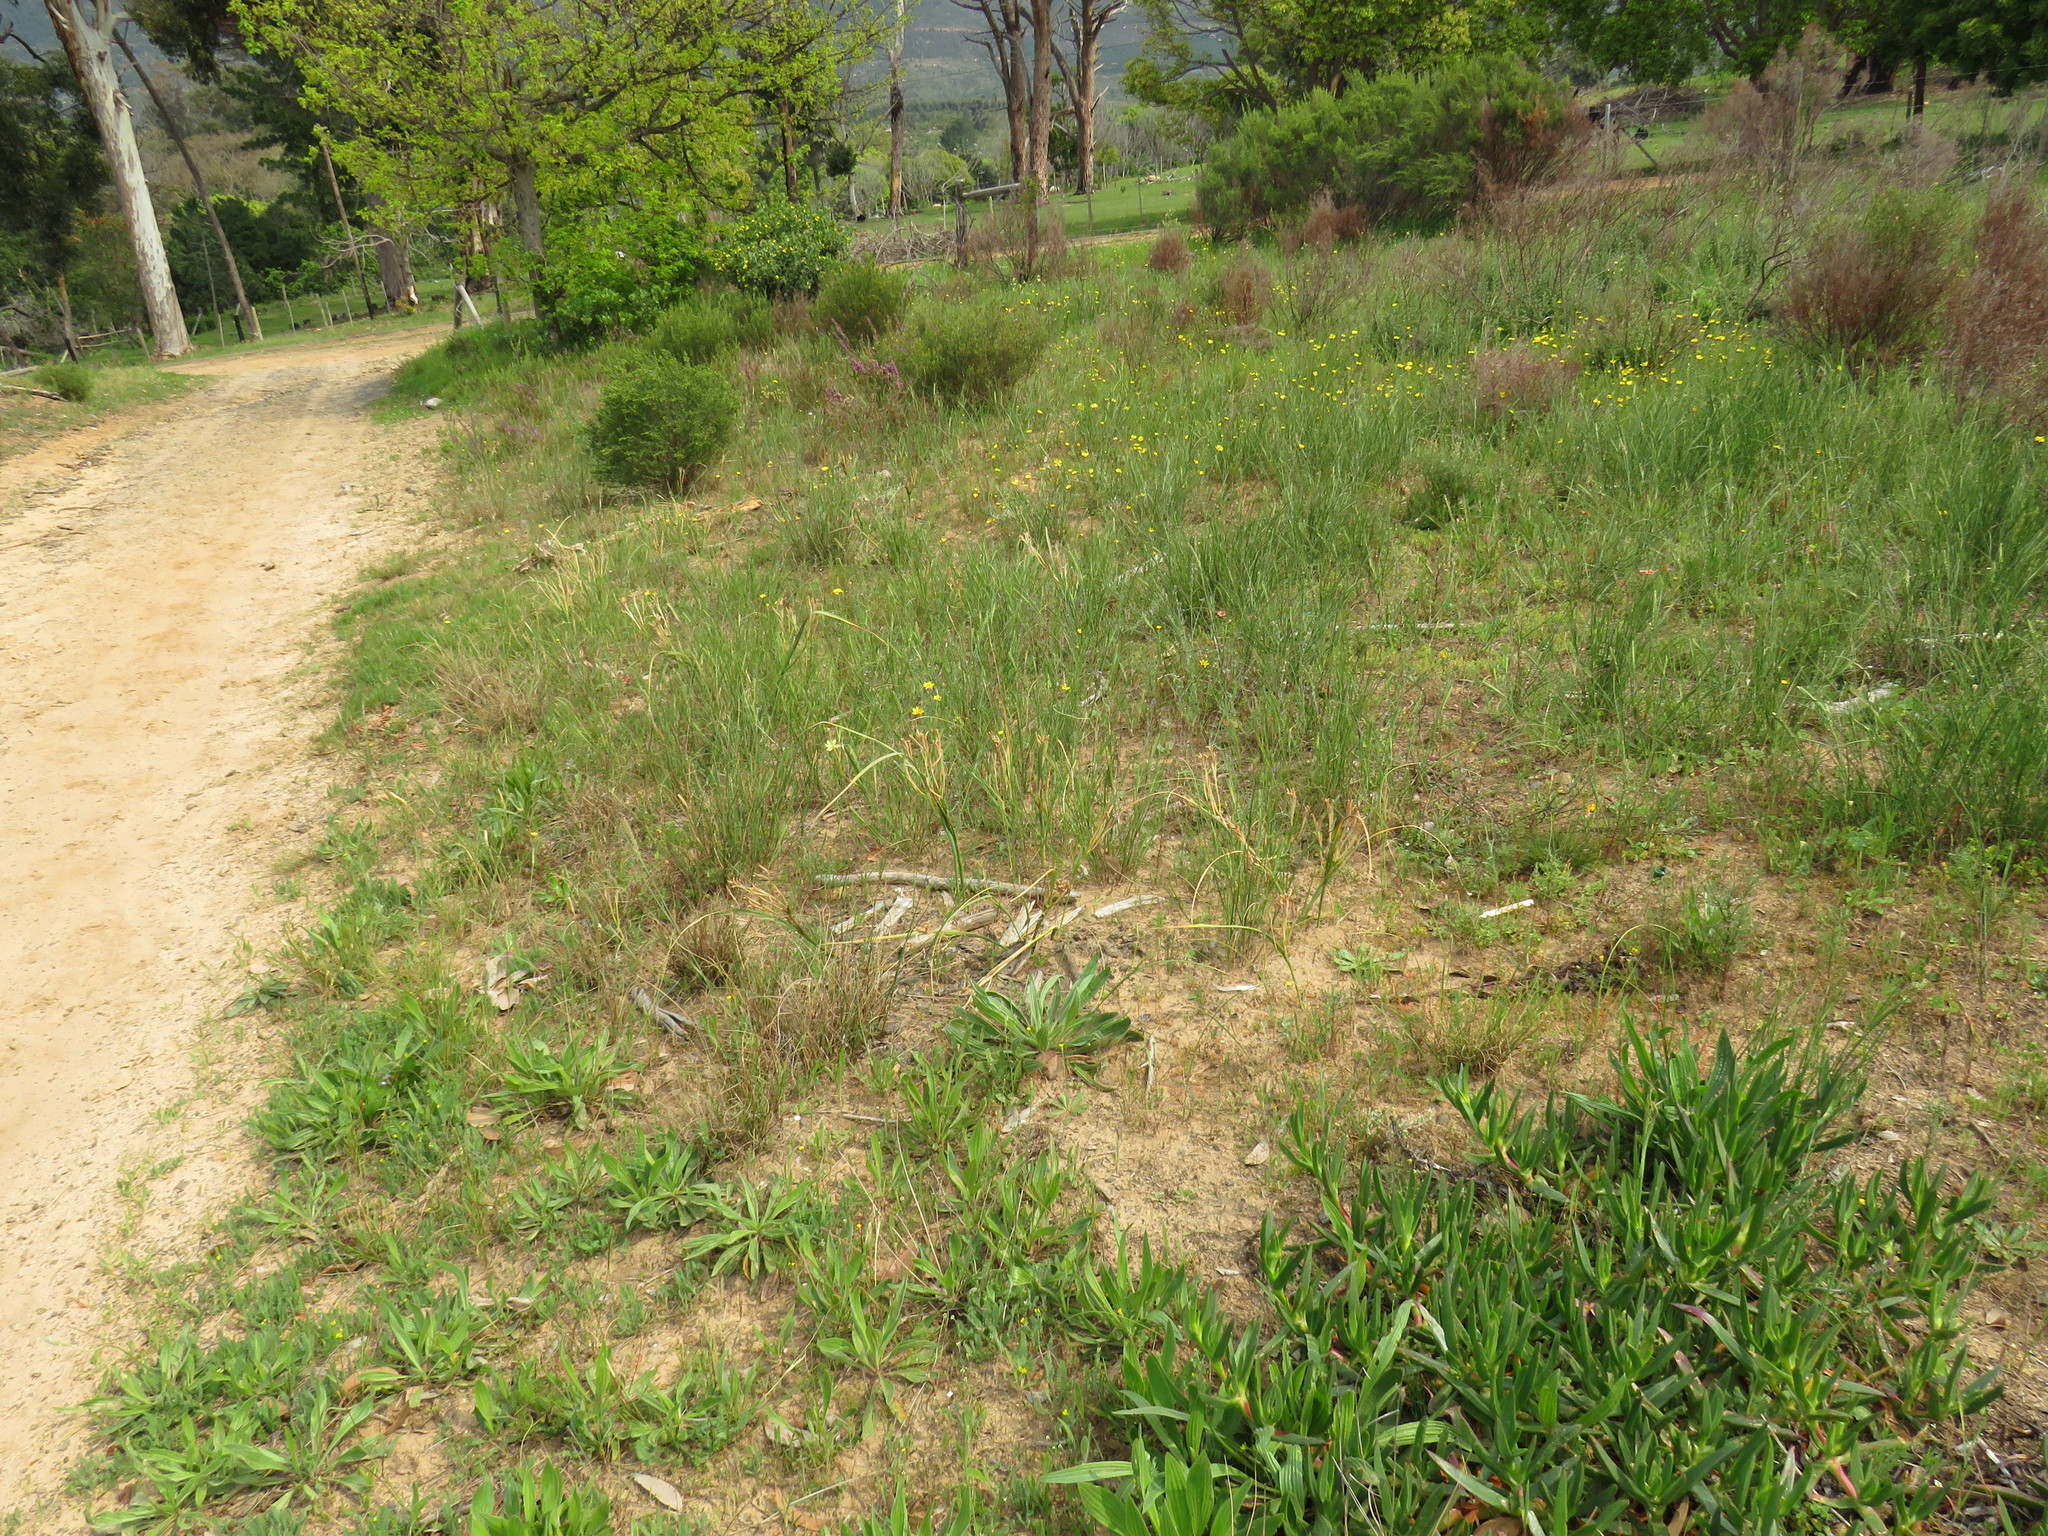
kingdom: Plantae
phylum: Tracheophyta
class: Liliopsida
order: Asparagales
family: Iridaceae
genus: Moraea
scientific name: Moraea ramosissima
